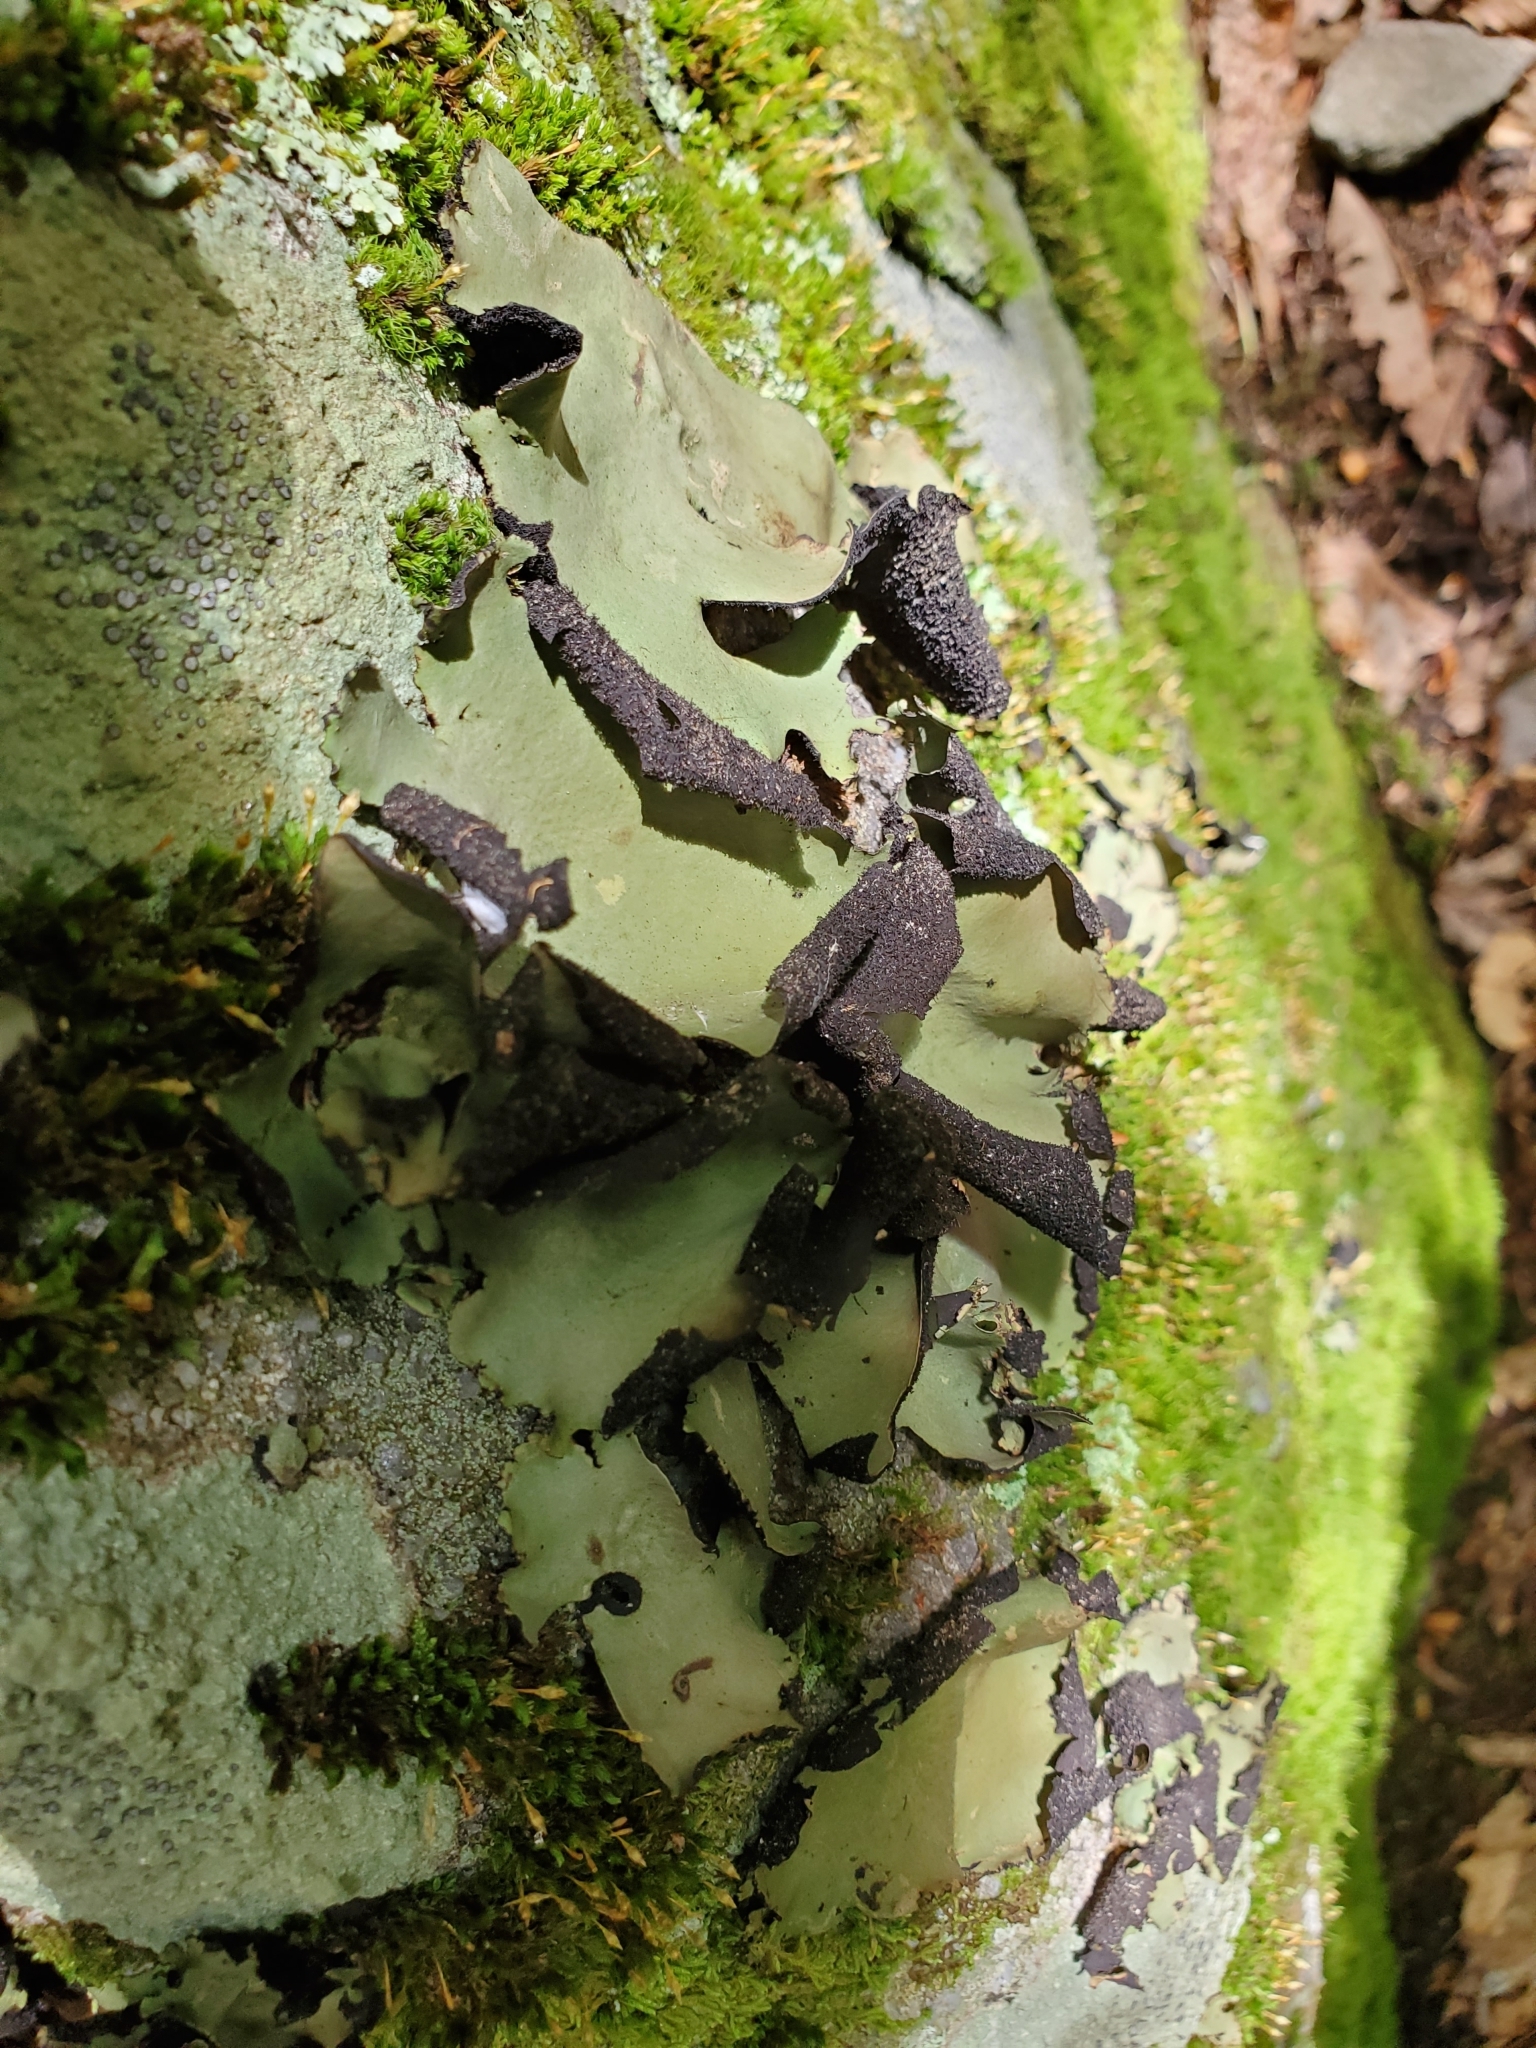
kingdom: Fungi
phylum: Ascomycota
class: Lecanoromycetes
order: Umbilicariales
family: Umbilicariaceae
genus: Umbilicaria
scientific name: Umbilicaria mammulata
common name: Smooth rock tripe
